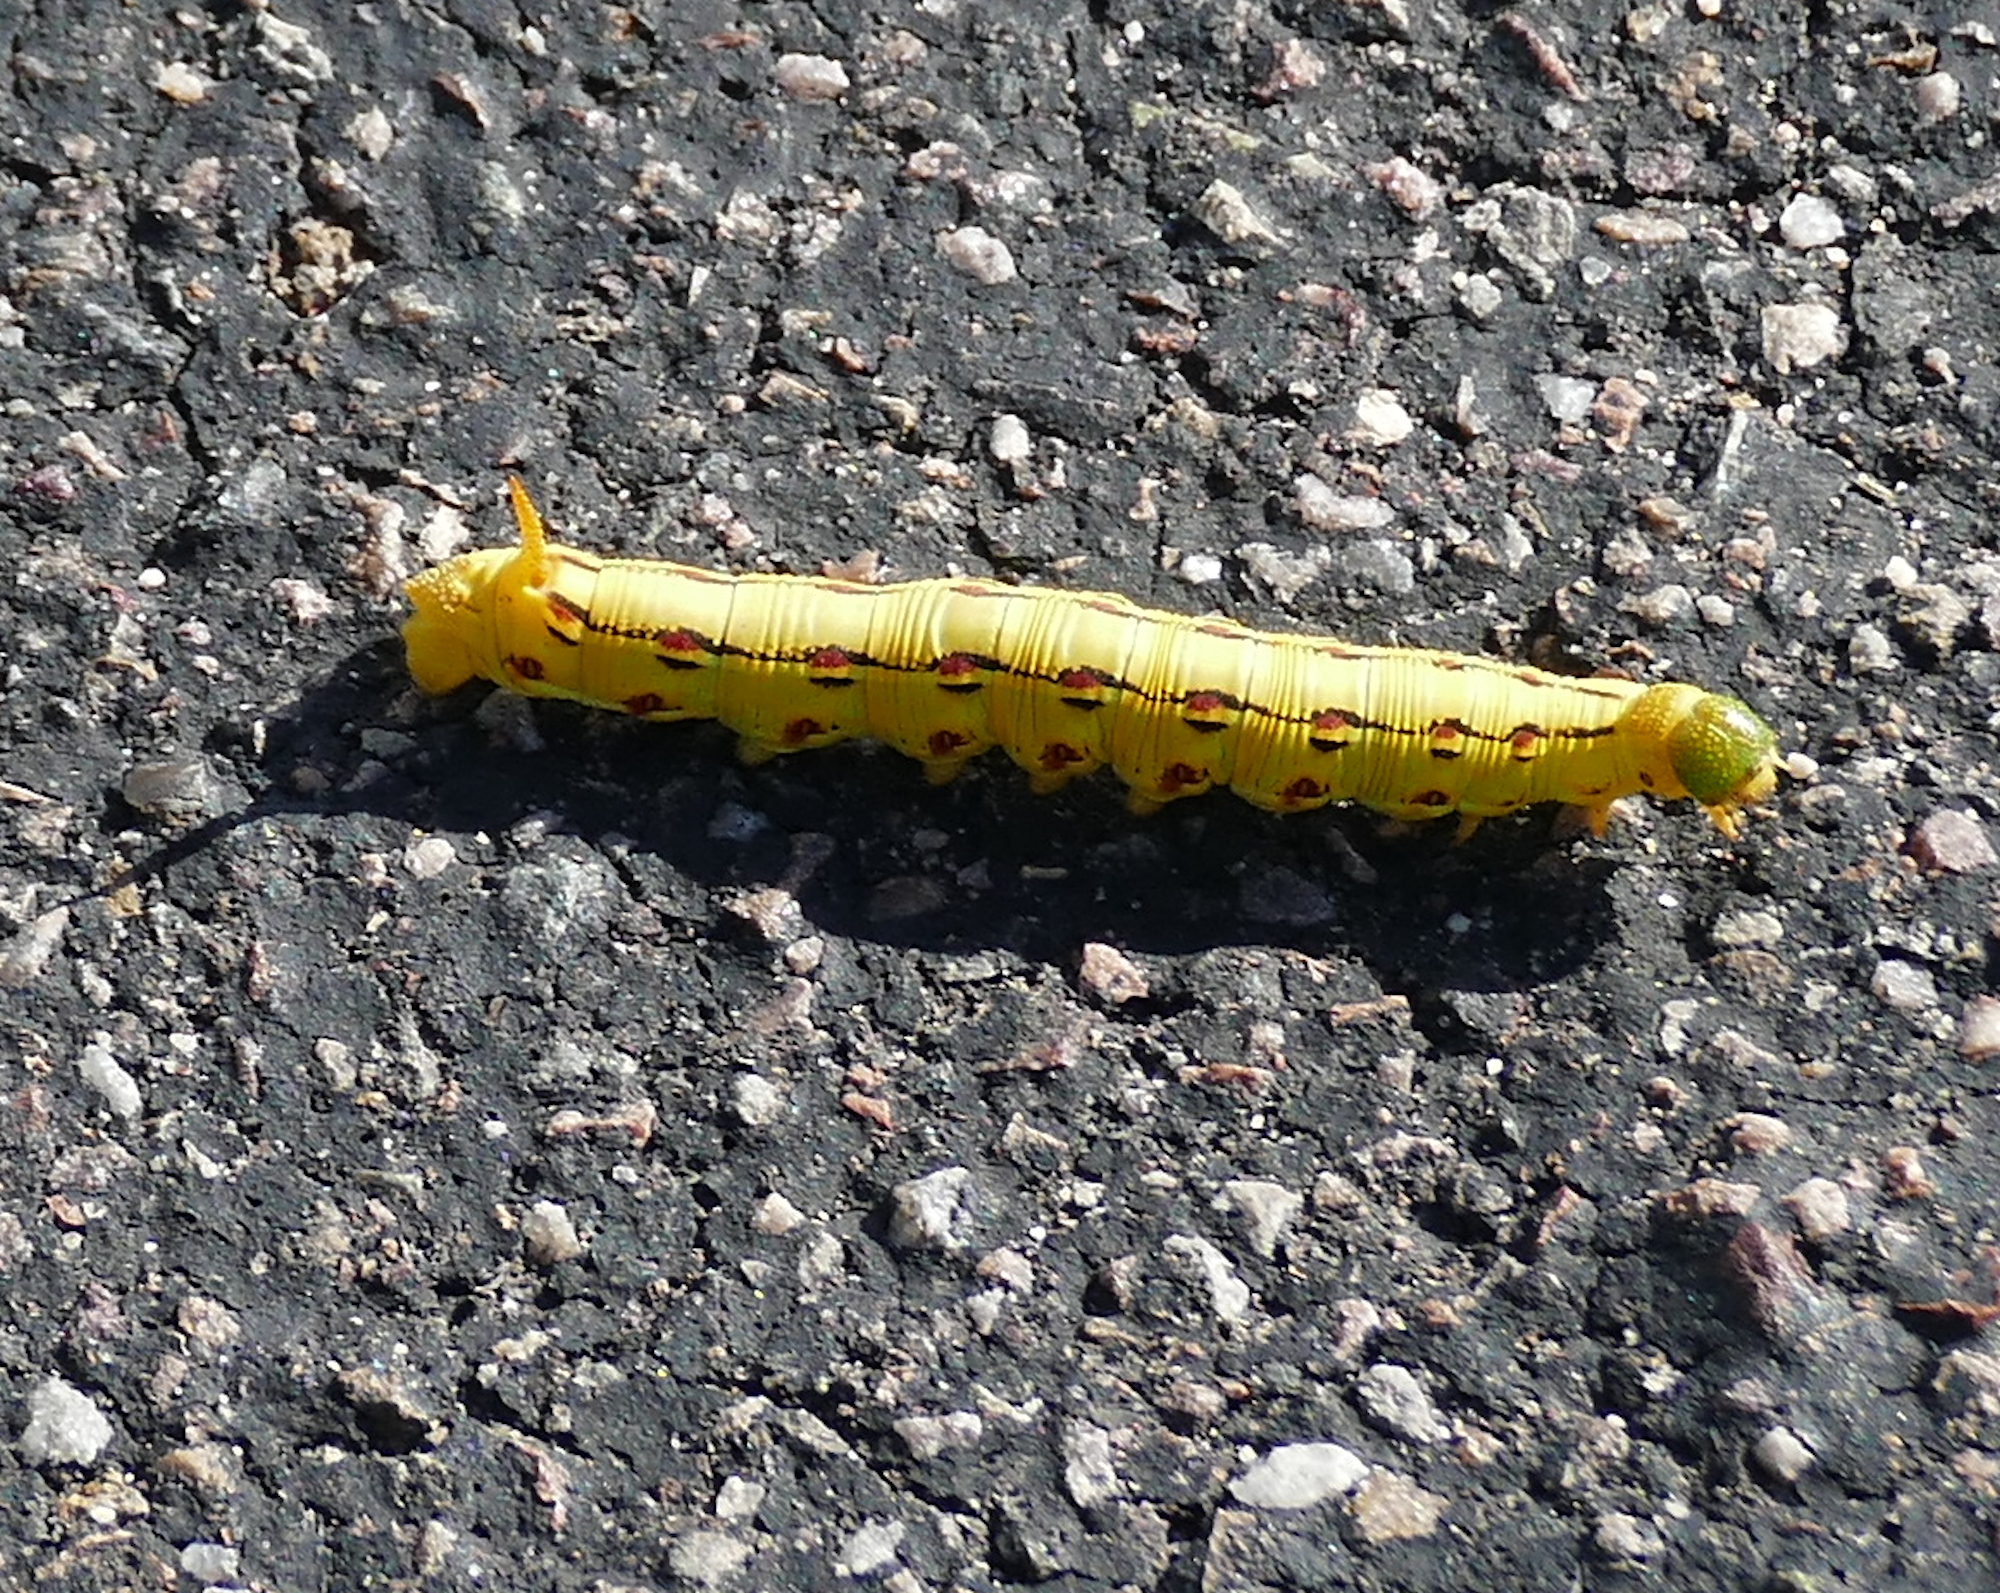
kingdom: Animalia
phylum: Arthropoda
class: Insecta
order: Lepidoptera
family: Sphingidae
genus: Hyles
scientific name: Hyles lineata
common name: White-lined sphinx
